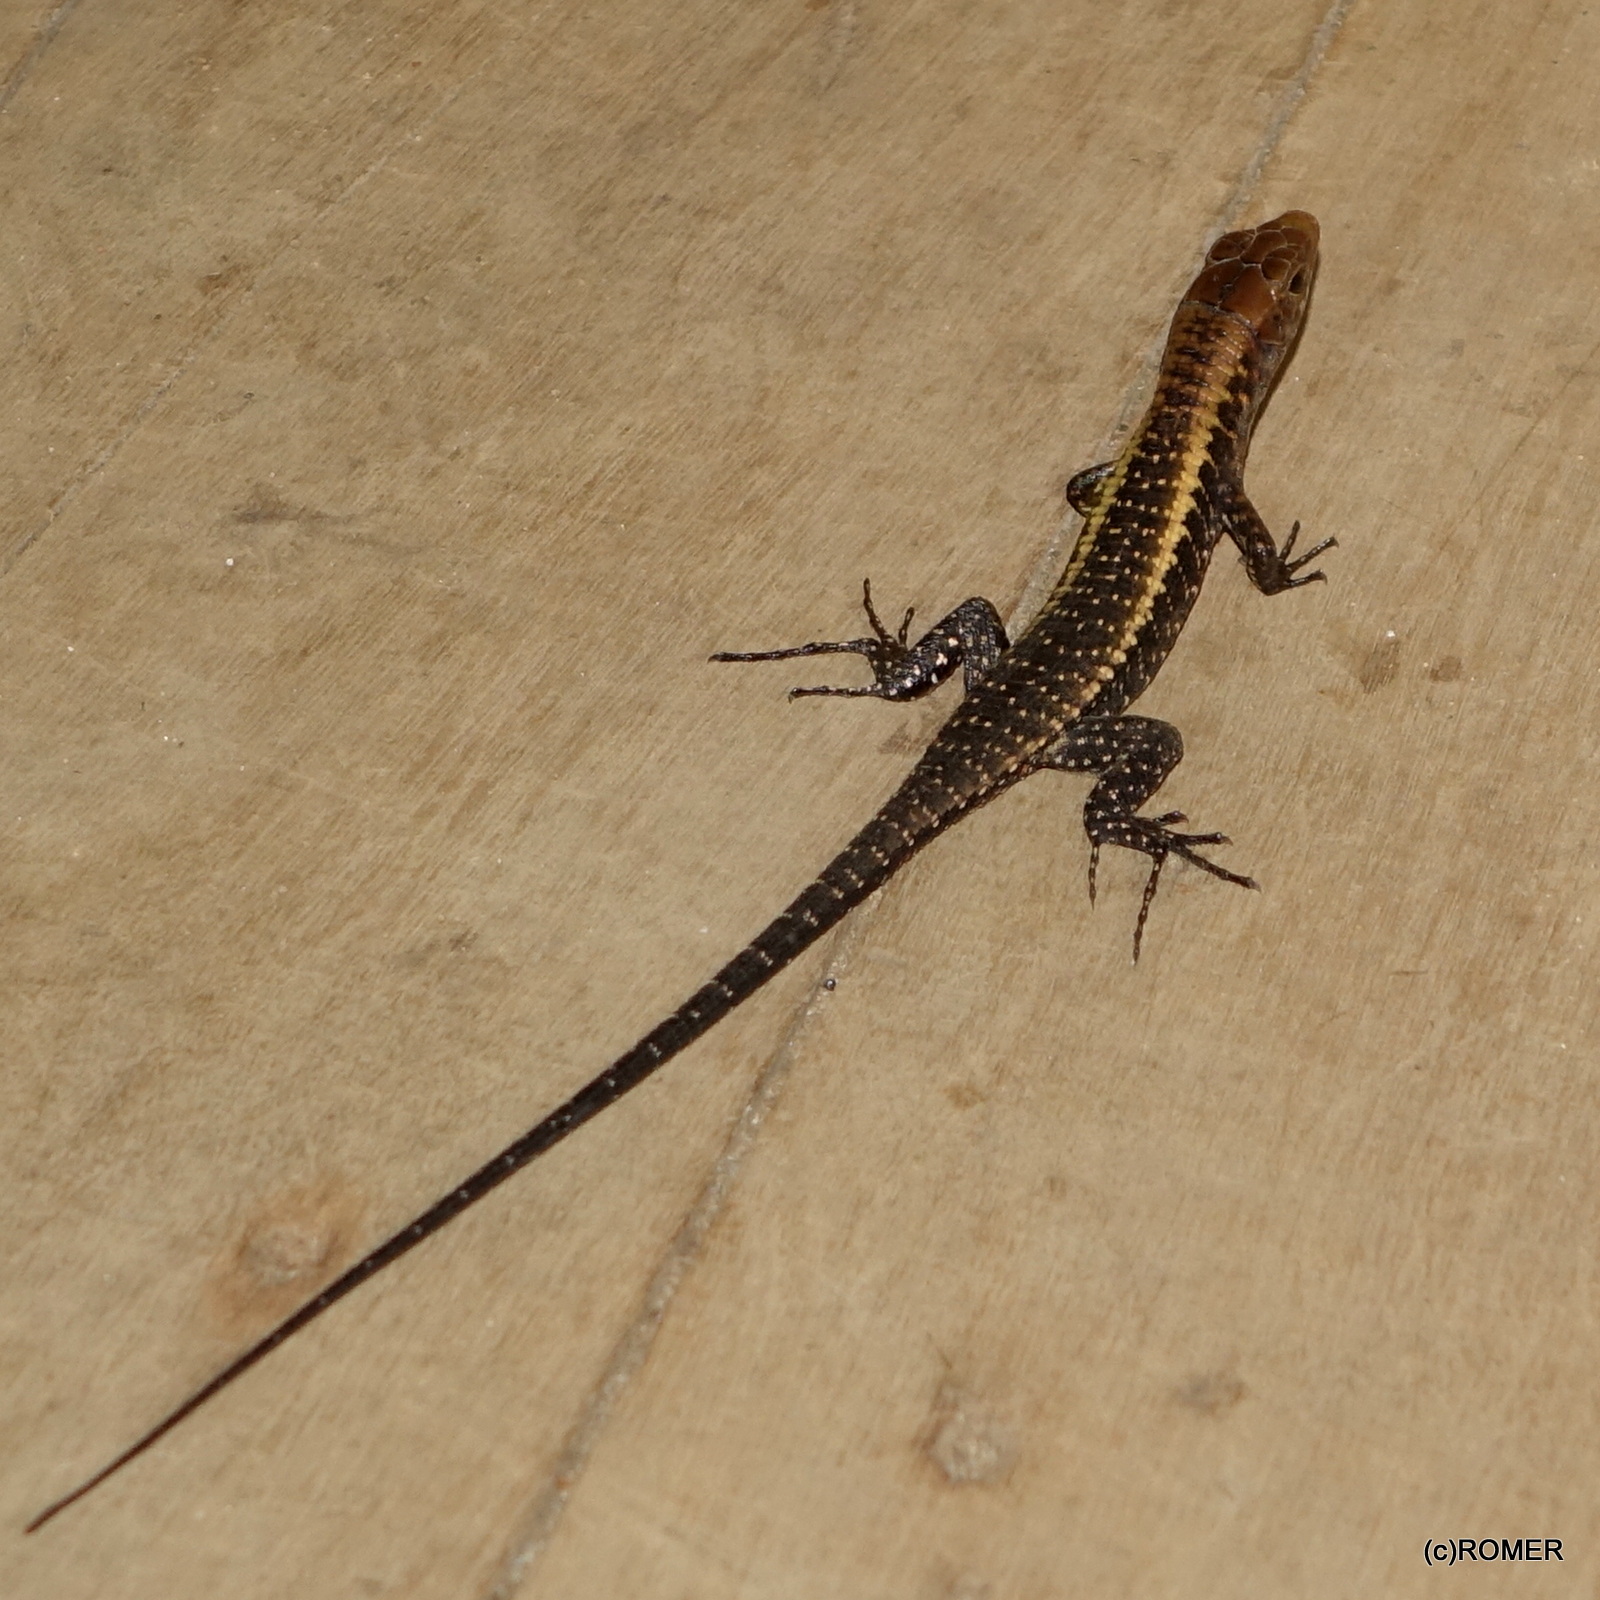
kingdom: Animalia
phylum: Chordata
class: Squamata
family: Gerrhosauridae
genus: Zonosaurus
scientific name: Zonosaurus laticaudatus
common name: Western girdled lizard
